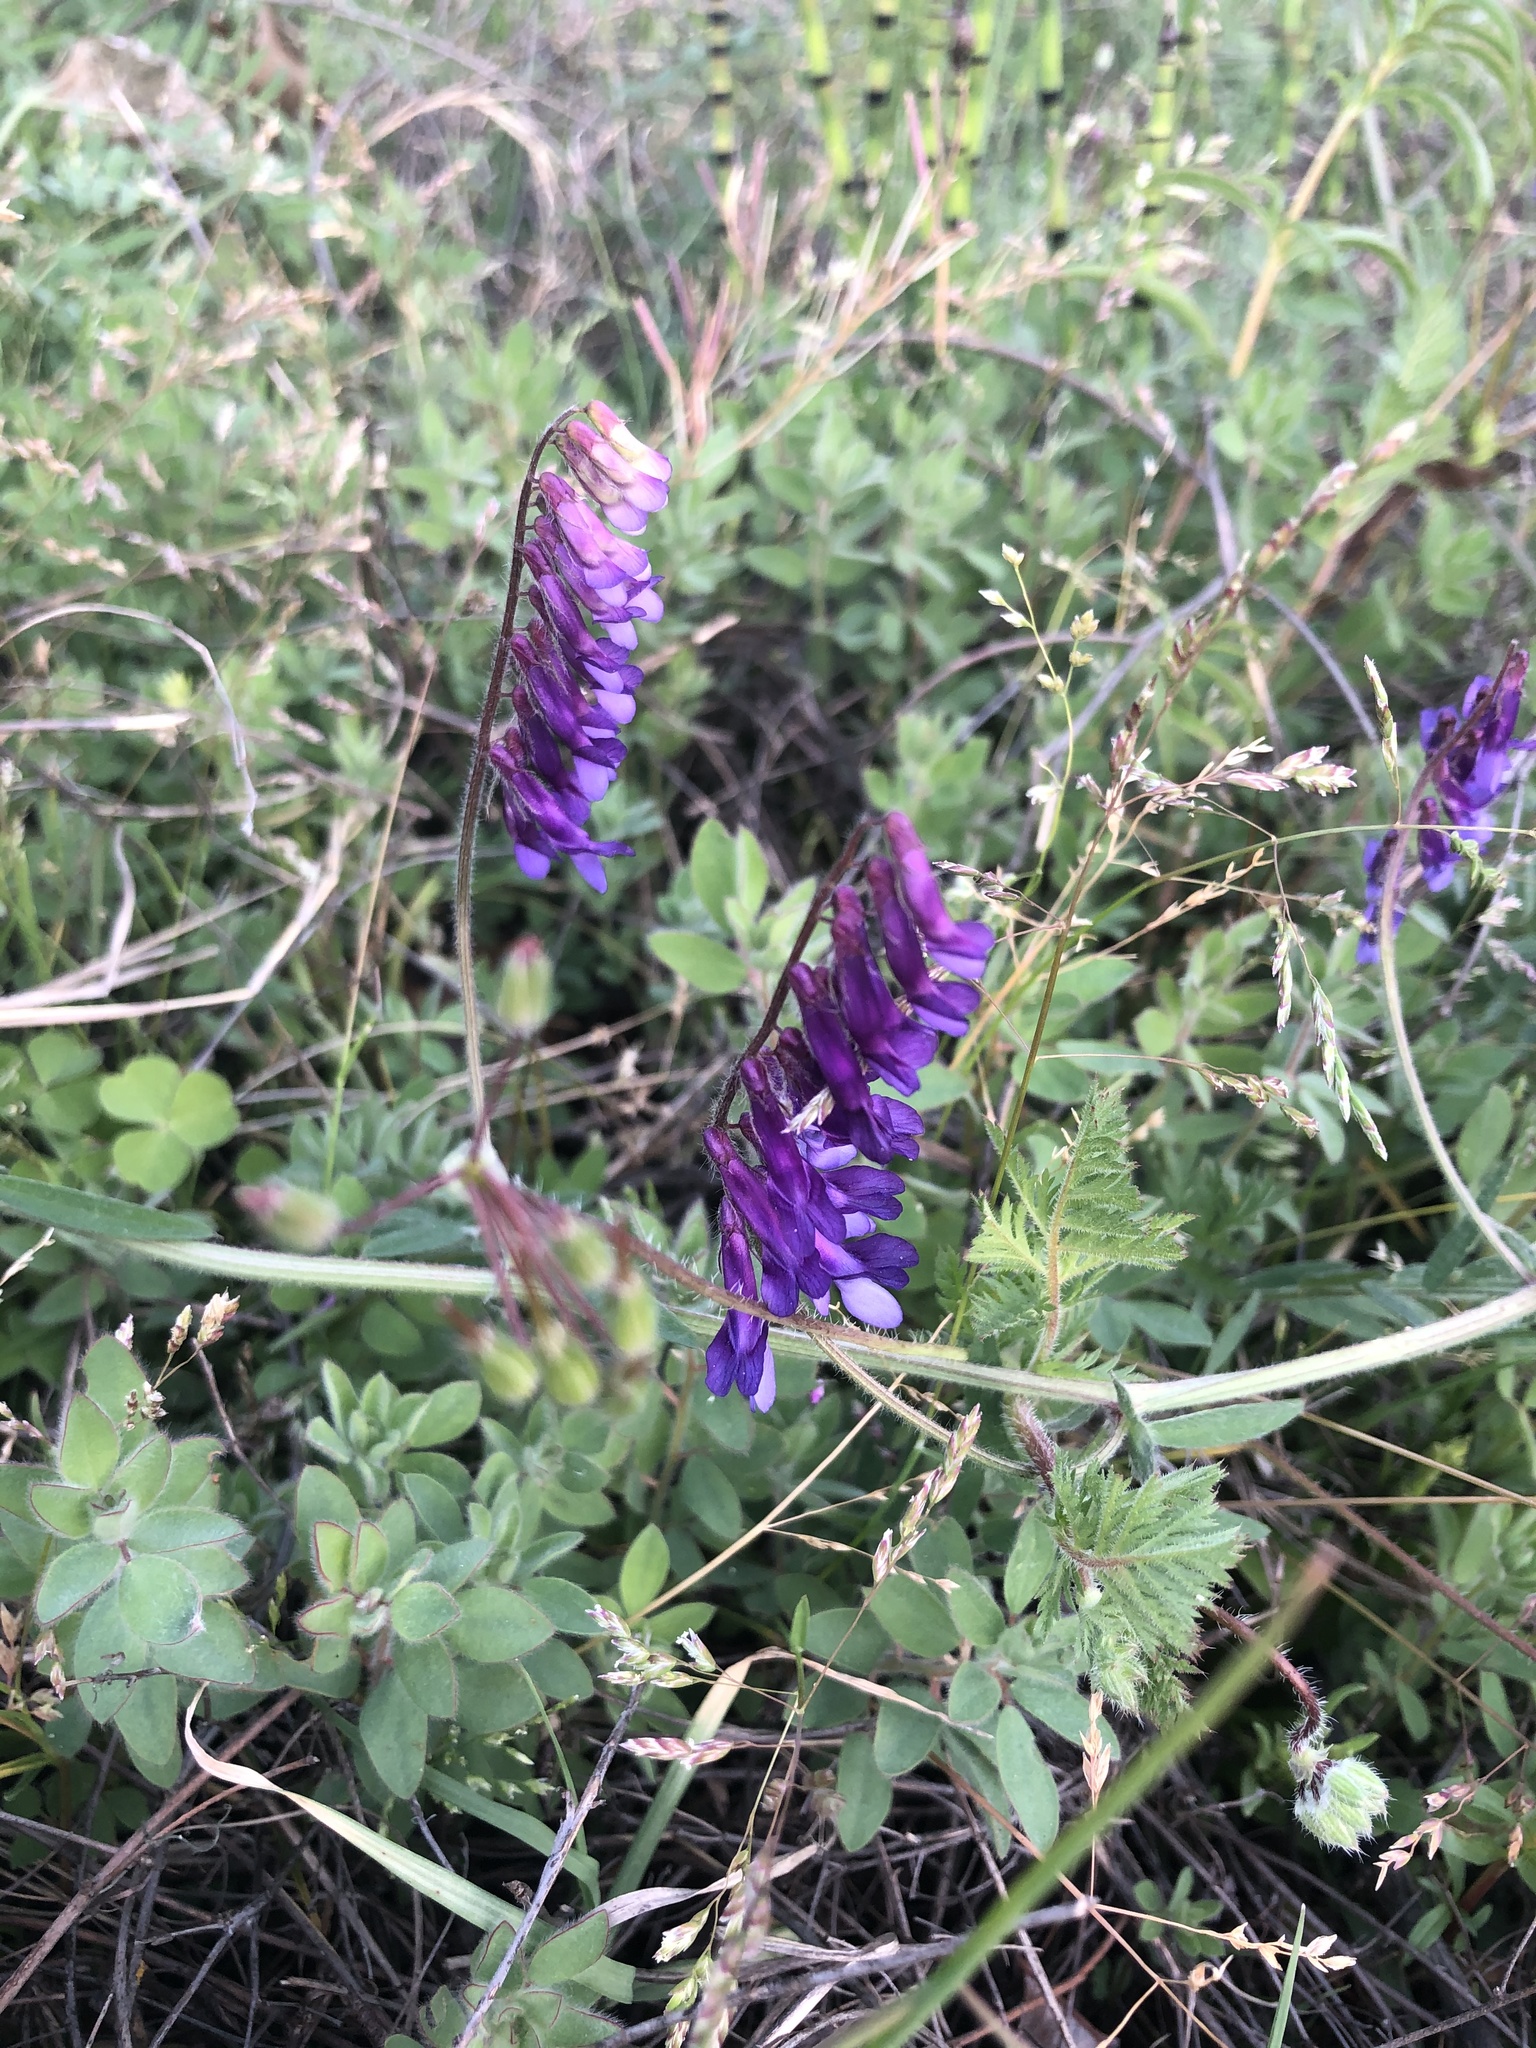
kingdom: Plantae
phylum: Tracheophyta
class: Magnoliopsida
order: Fabales
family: Fabaceae
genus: Vicia
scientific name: Vicia villosa
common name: Fodder vetch
